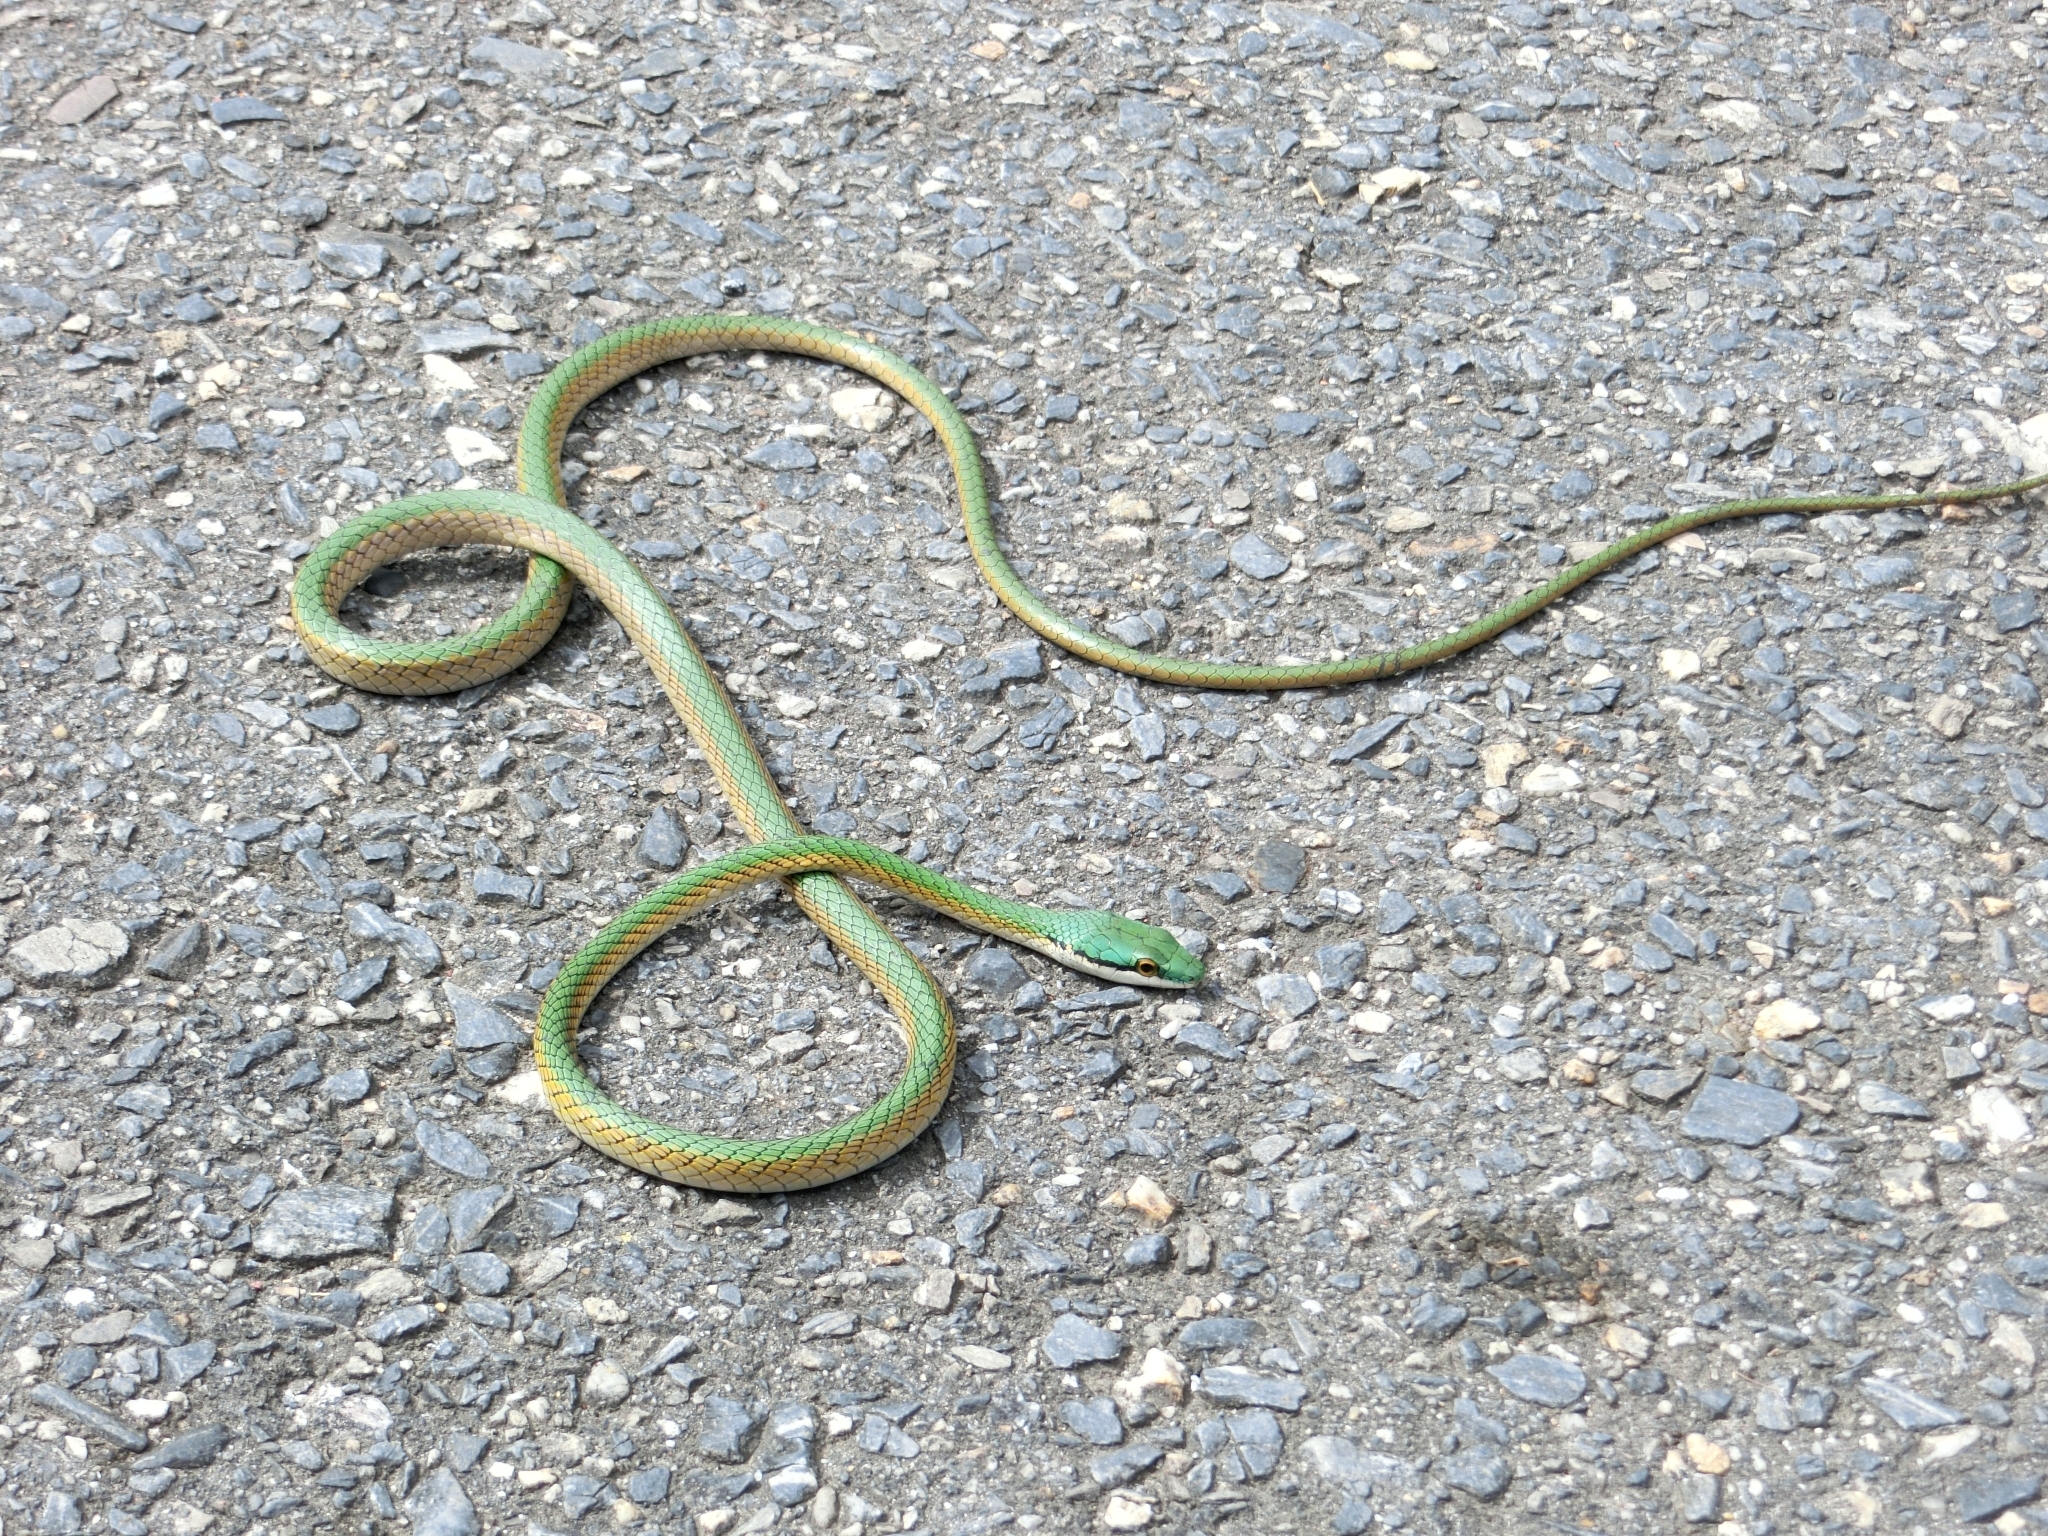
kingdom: Animalia
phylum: Chordata
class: Squamata
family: Colubridae
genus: Leptophis
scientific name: Leptophis coeruleodorsus
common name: Oliver’s parrot snake
